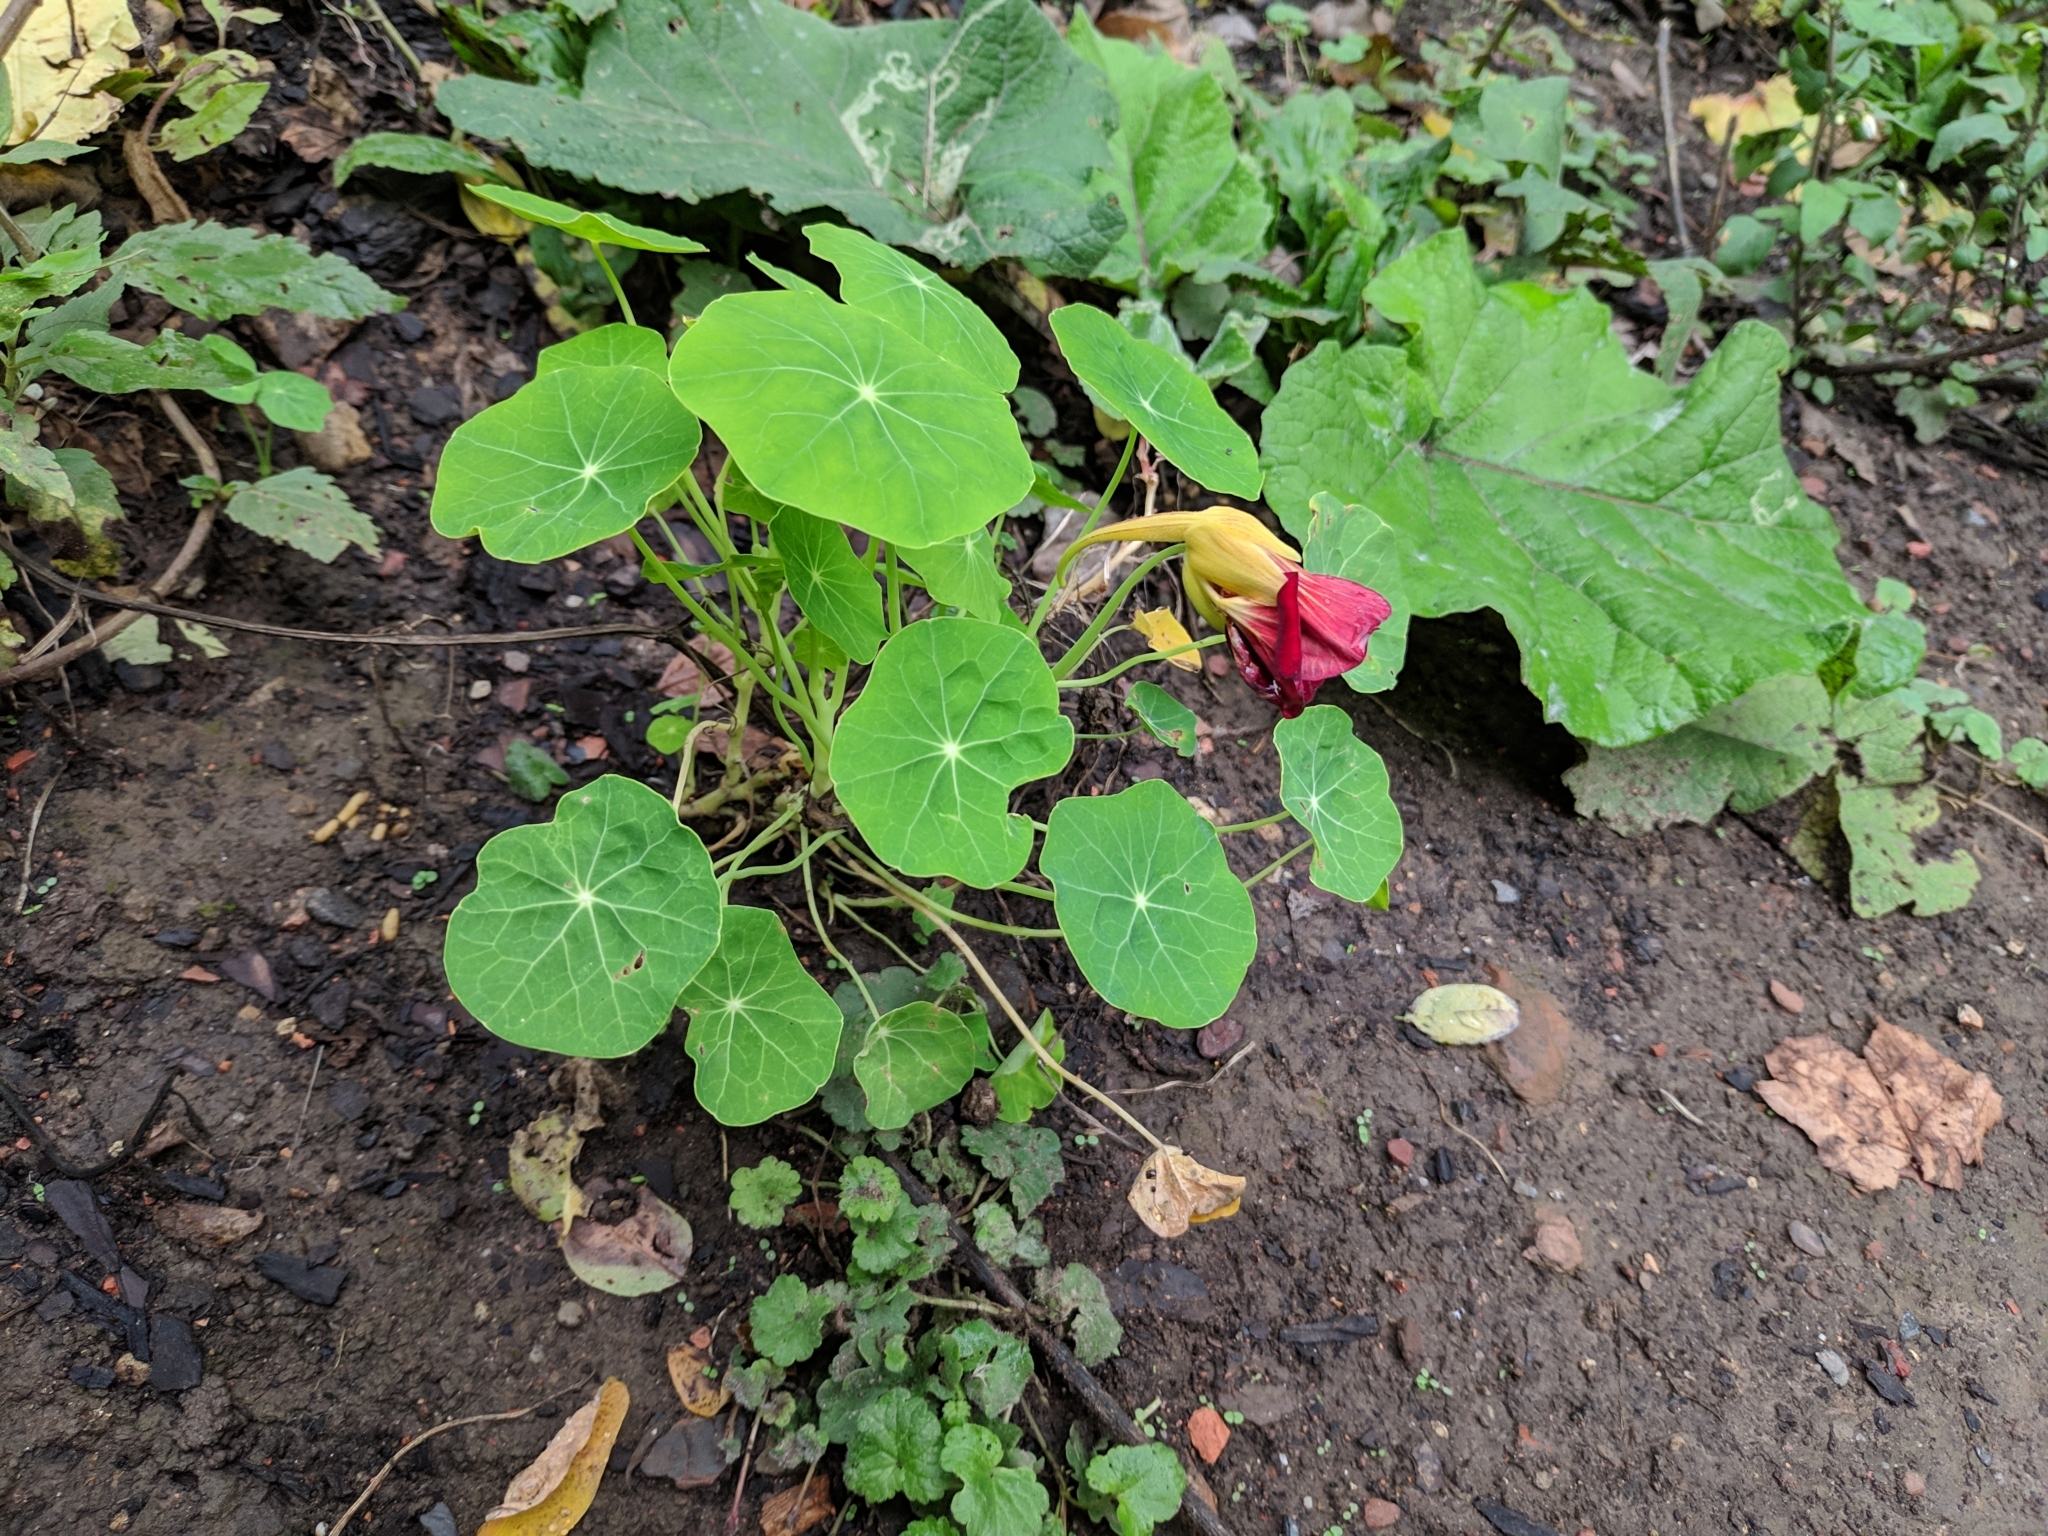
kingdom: Plantae
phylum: Tracheophyta
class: Magnoliopsida
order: Brassicales
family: Tropaeolaceae
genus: Tropaeolum
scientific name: Tropaeolum majus
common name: Nasturtium
